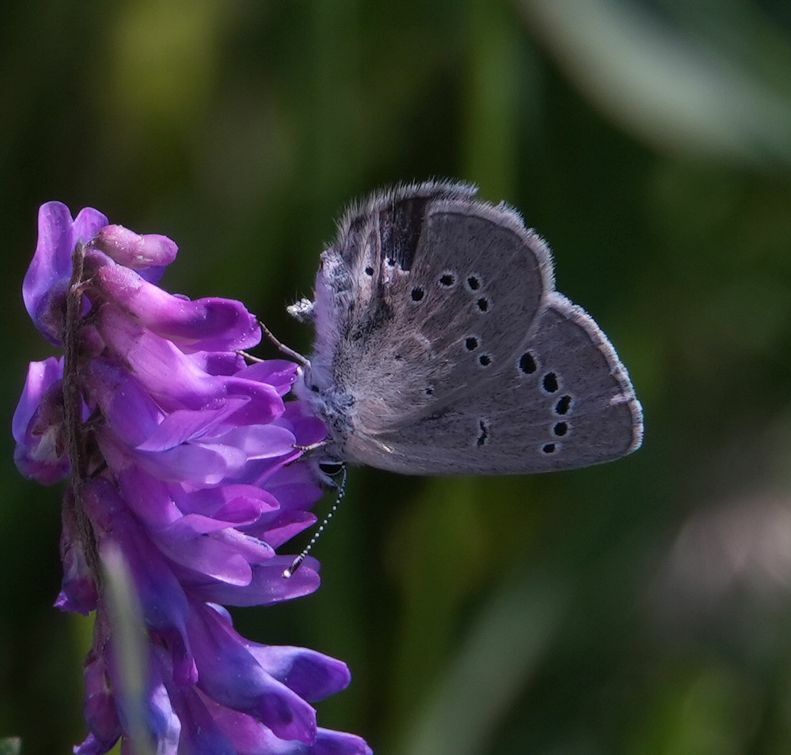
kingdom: Animalia
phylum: Arthropoda
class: Insecta
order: Lepidoptera
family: Lycaenidae
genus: Glaucopsyche
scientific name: Glaucopsyche lygdamus
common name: Silvery blue
